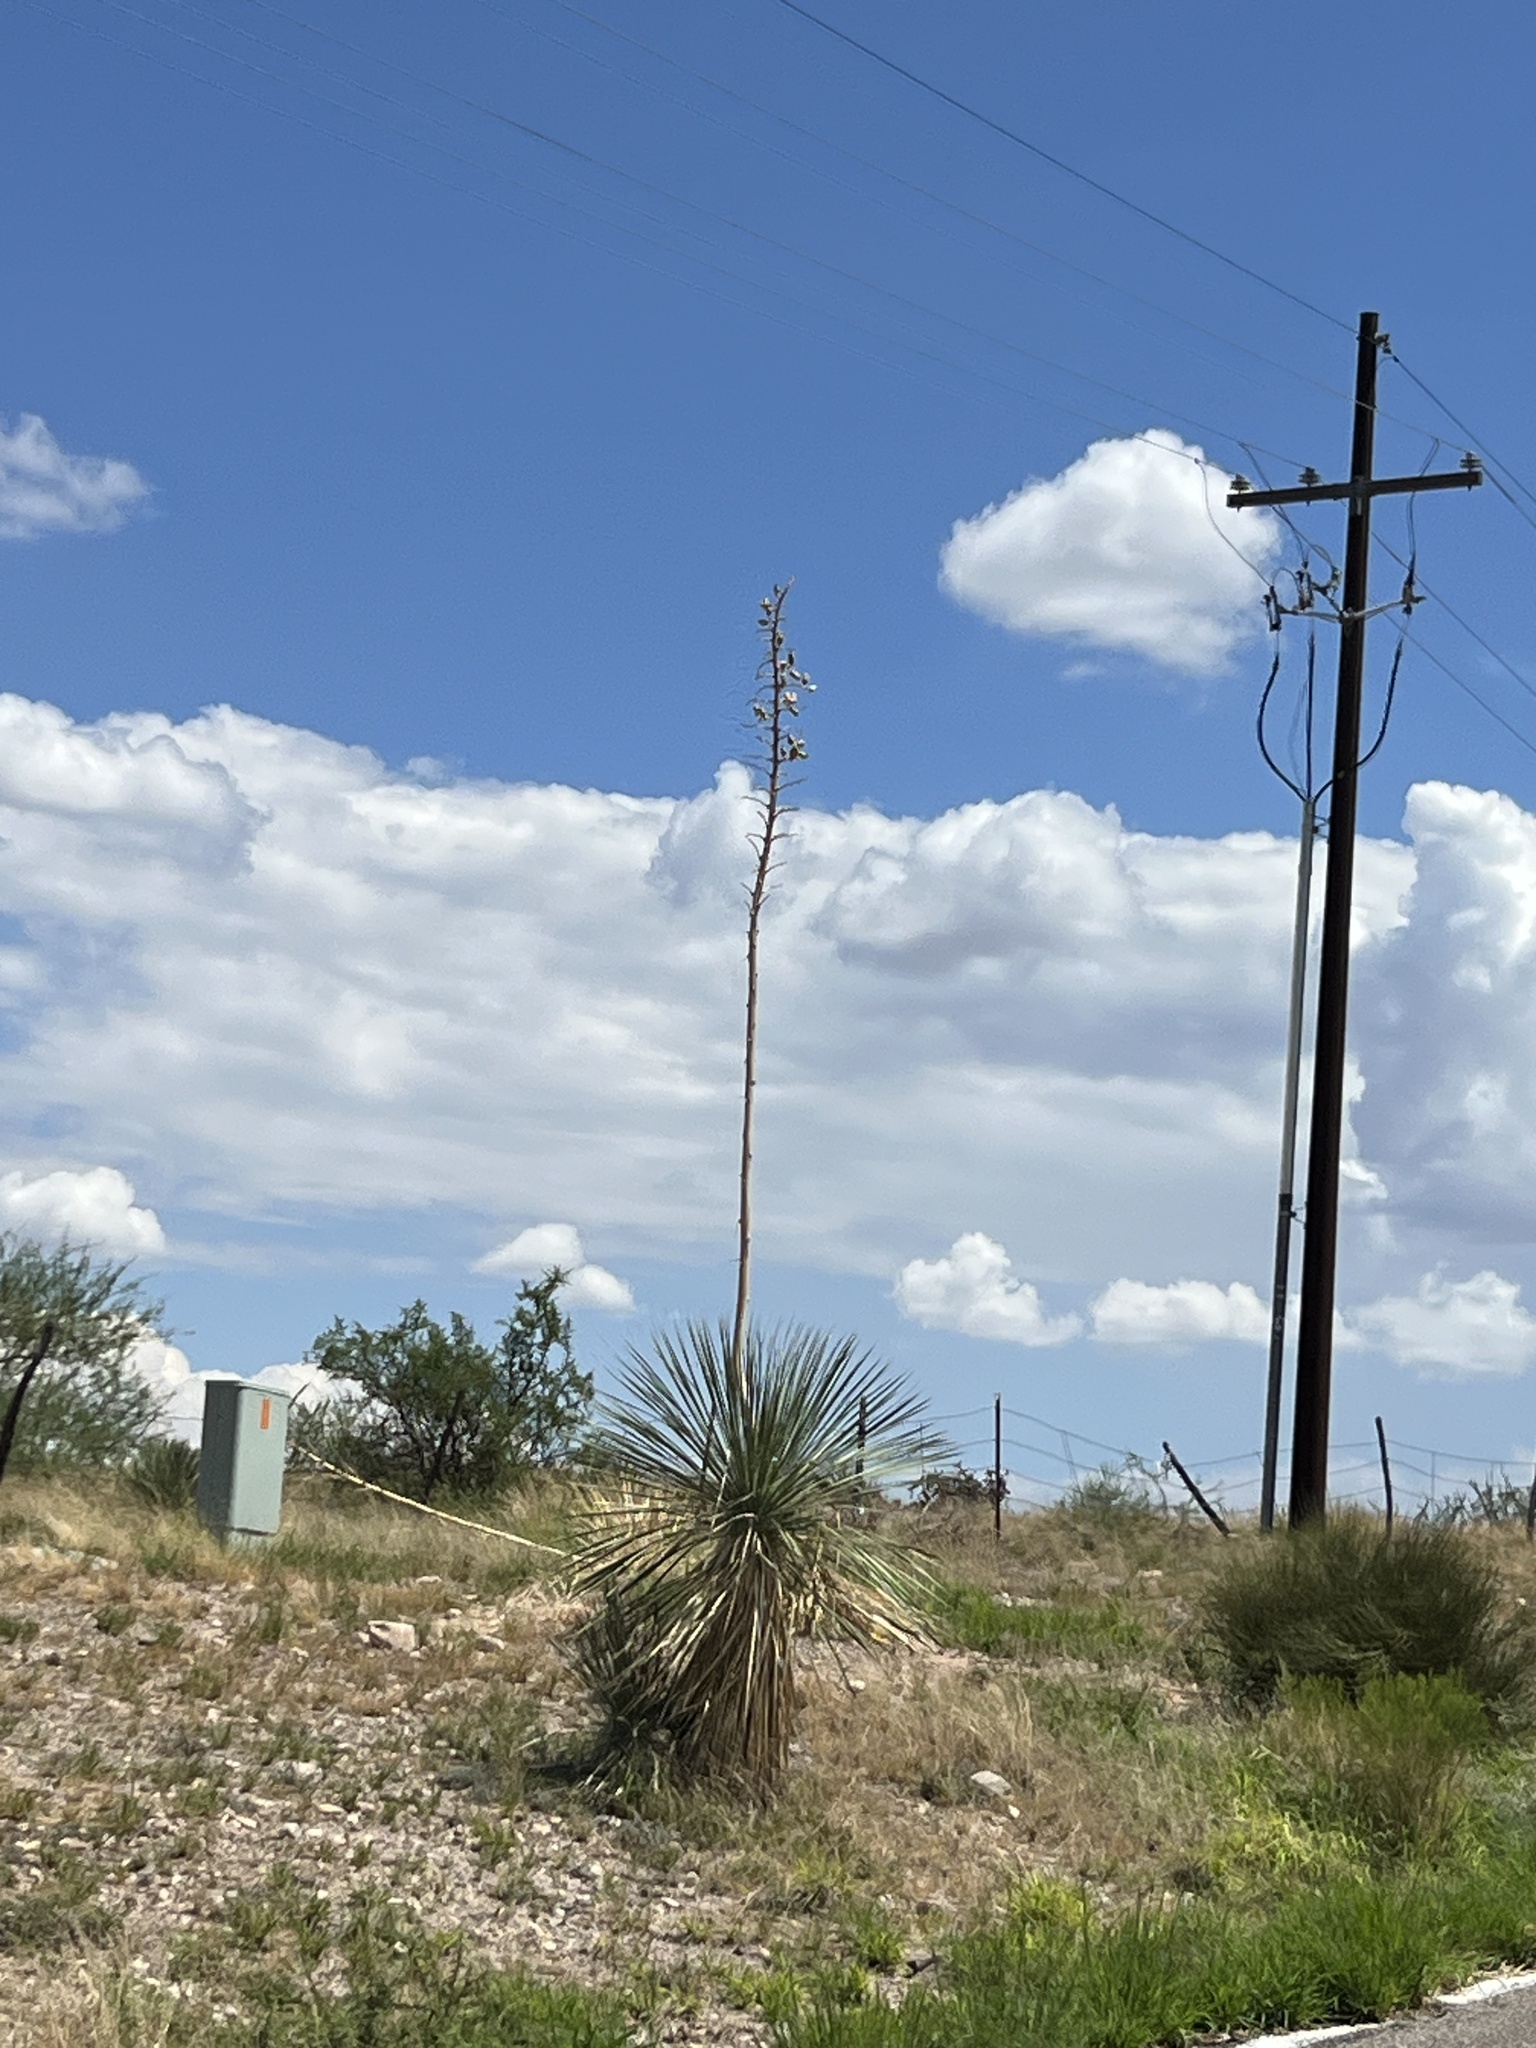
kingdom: Plantae
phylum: Tracheophyta
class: Liliopsida
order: Asparagales
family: Asparagaceae
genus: Yucca
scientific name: Yucca elata
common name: Palmella
